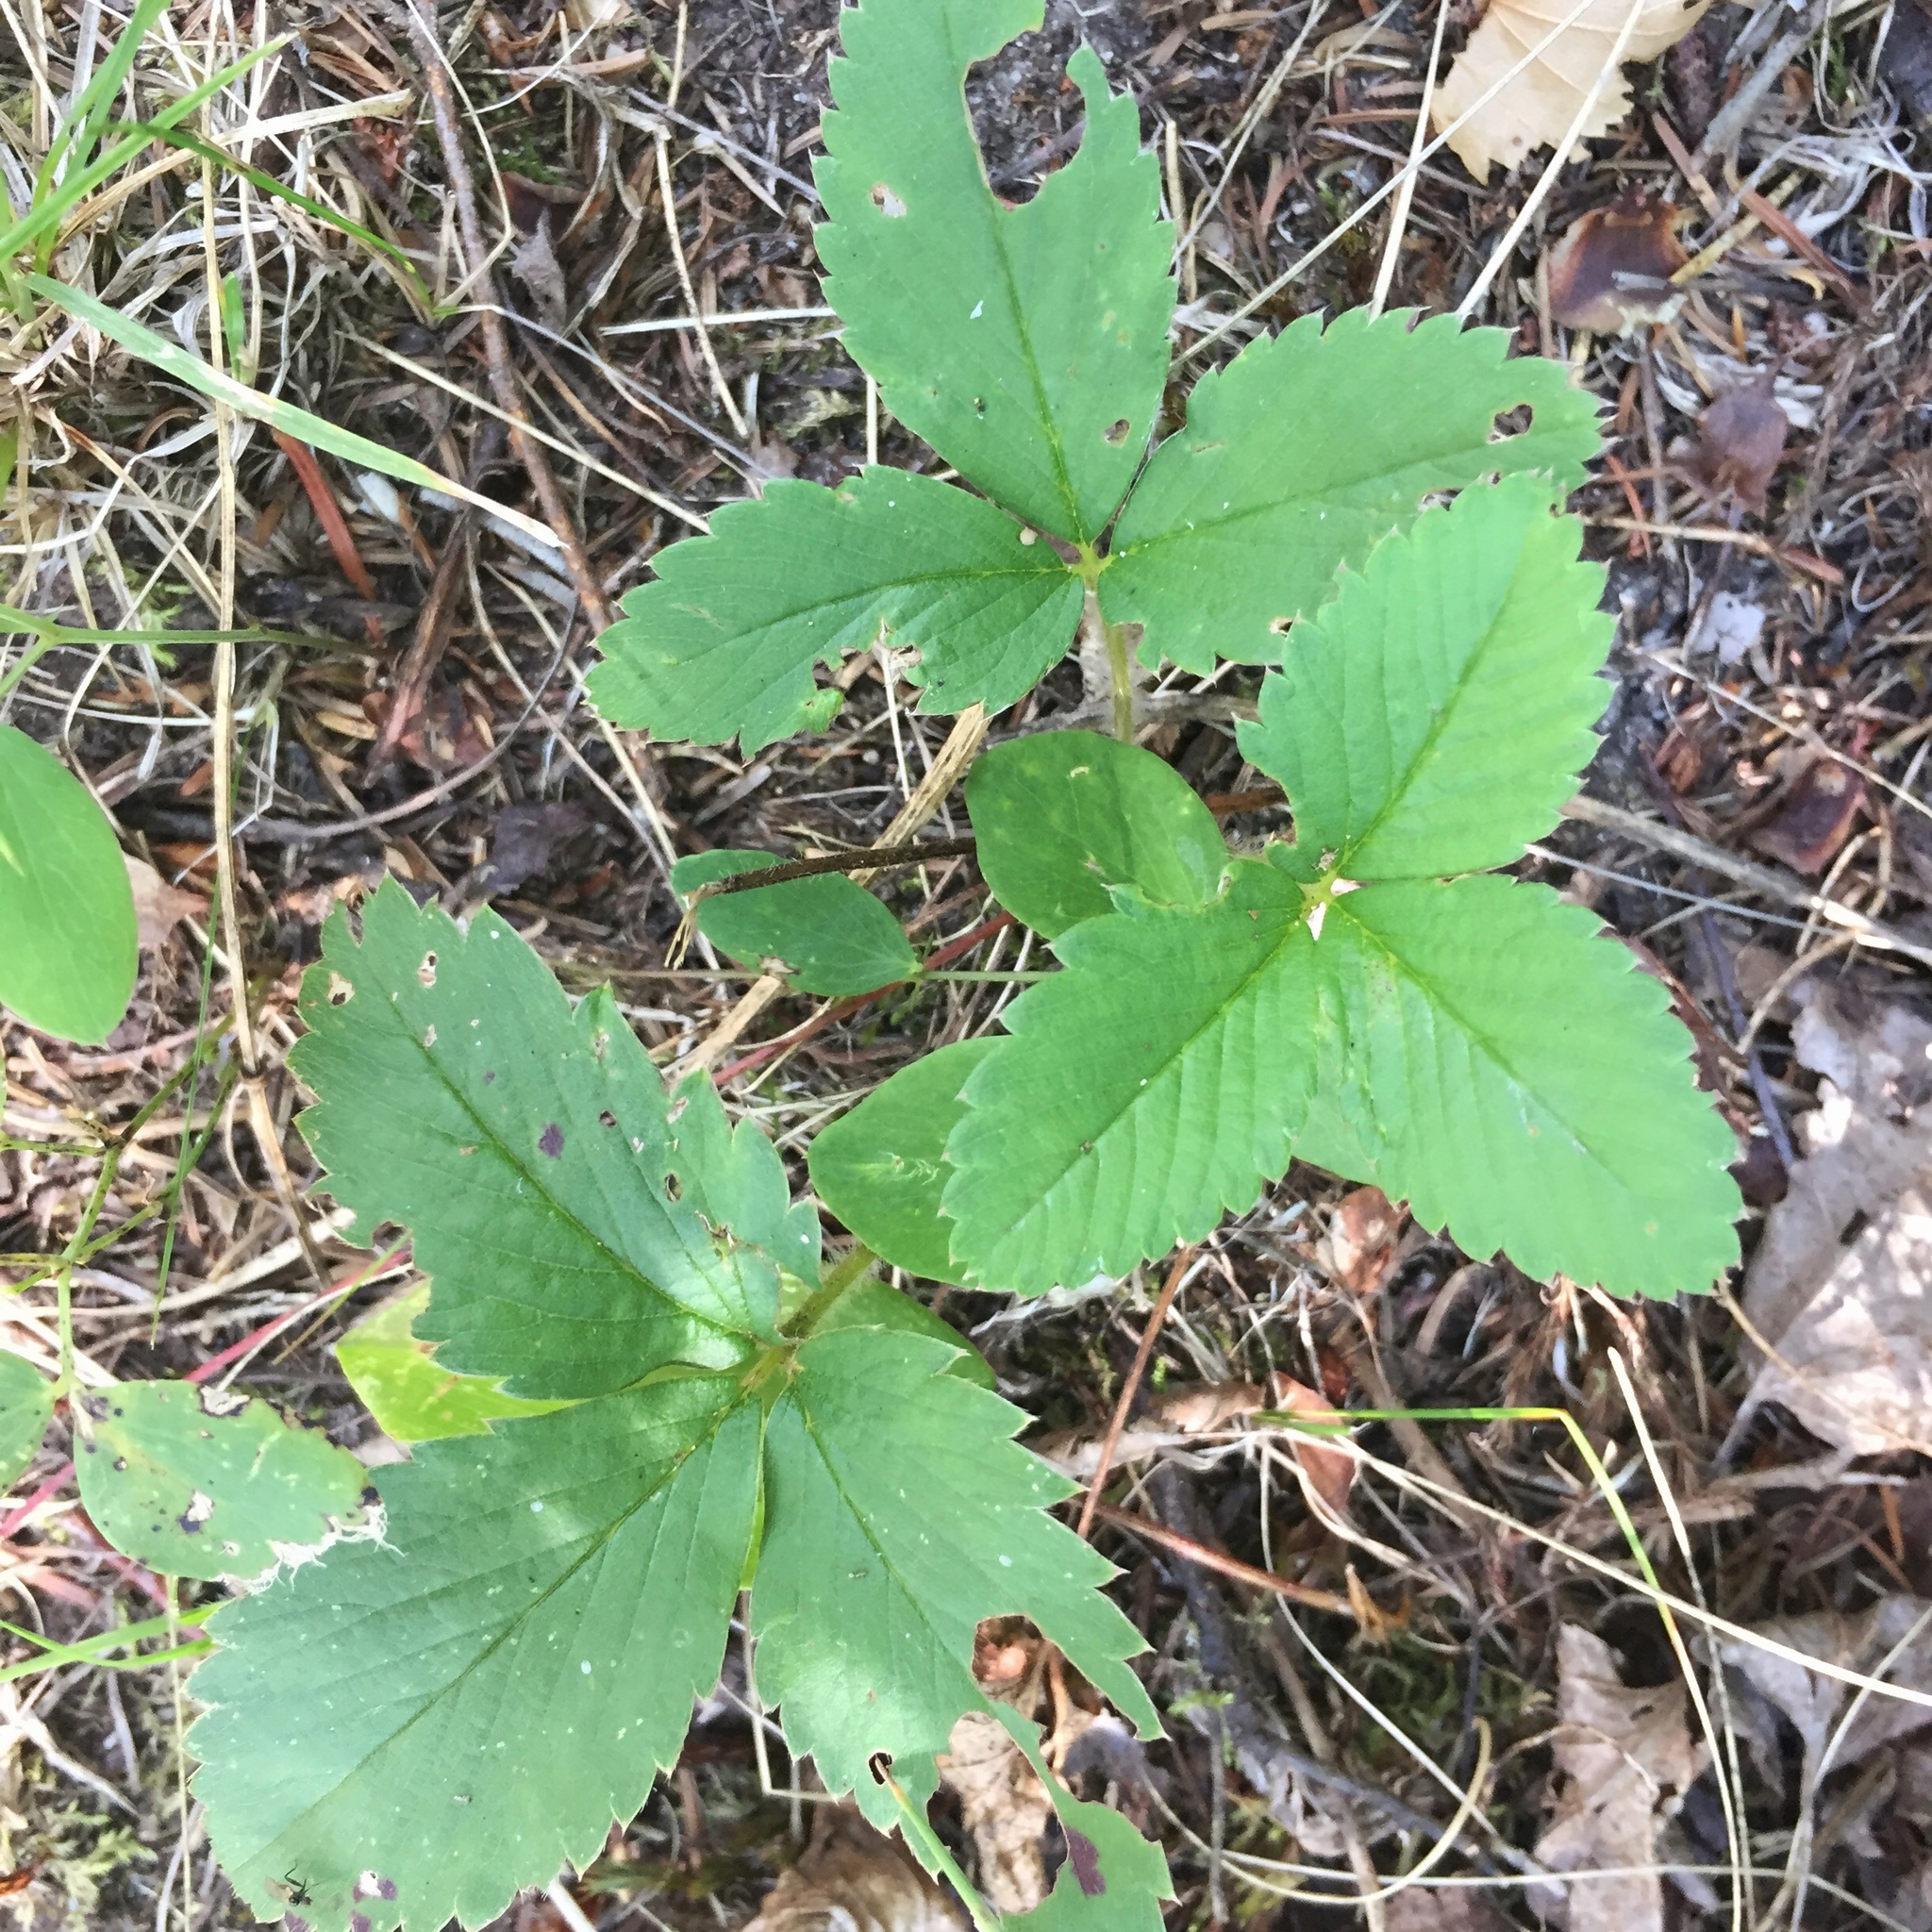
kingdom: Plantae
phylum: Tracheophyta
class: Magnoliopsida
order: Rosales
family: Rosaceae
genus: Fragaria
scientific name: Fragaria virginiana
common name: Thickleaved wild strawberry
